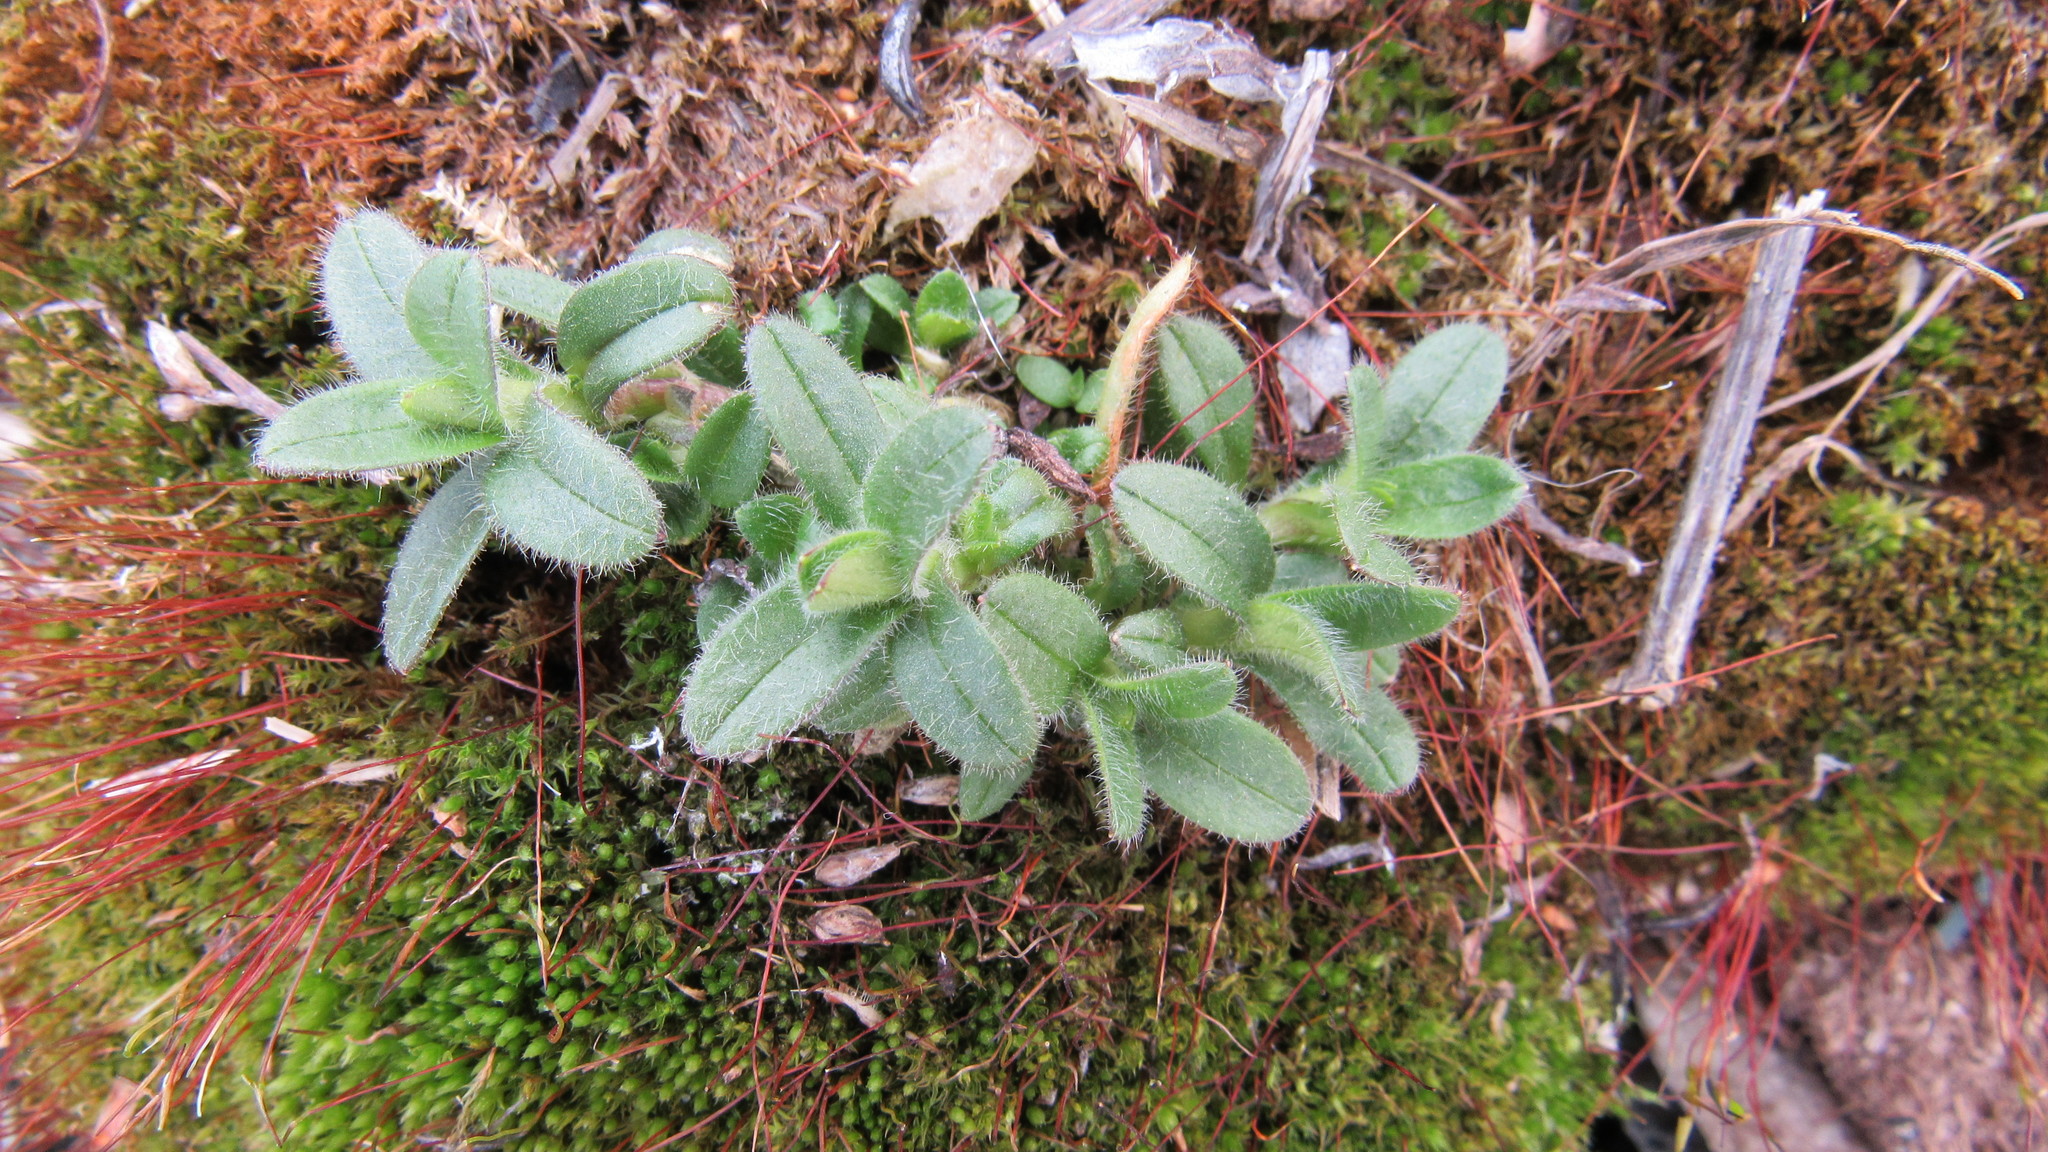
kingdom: Plantae
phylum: Tracheophyta
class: Magnoliopsida
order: Caryophyllales
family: Caryophyllaceae
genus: Cerastium
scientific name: Cerastium holosteoides
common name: Big chickweed
